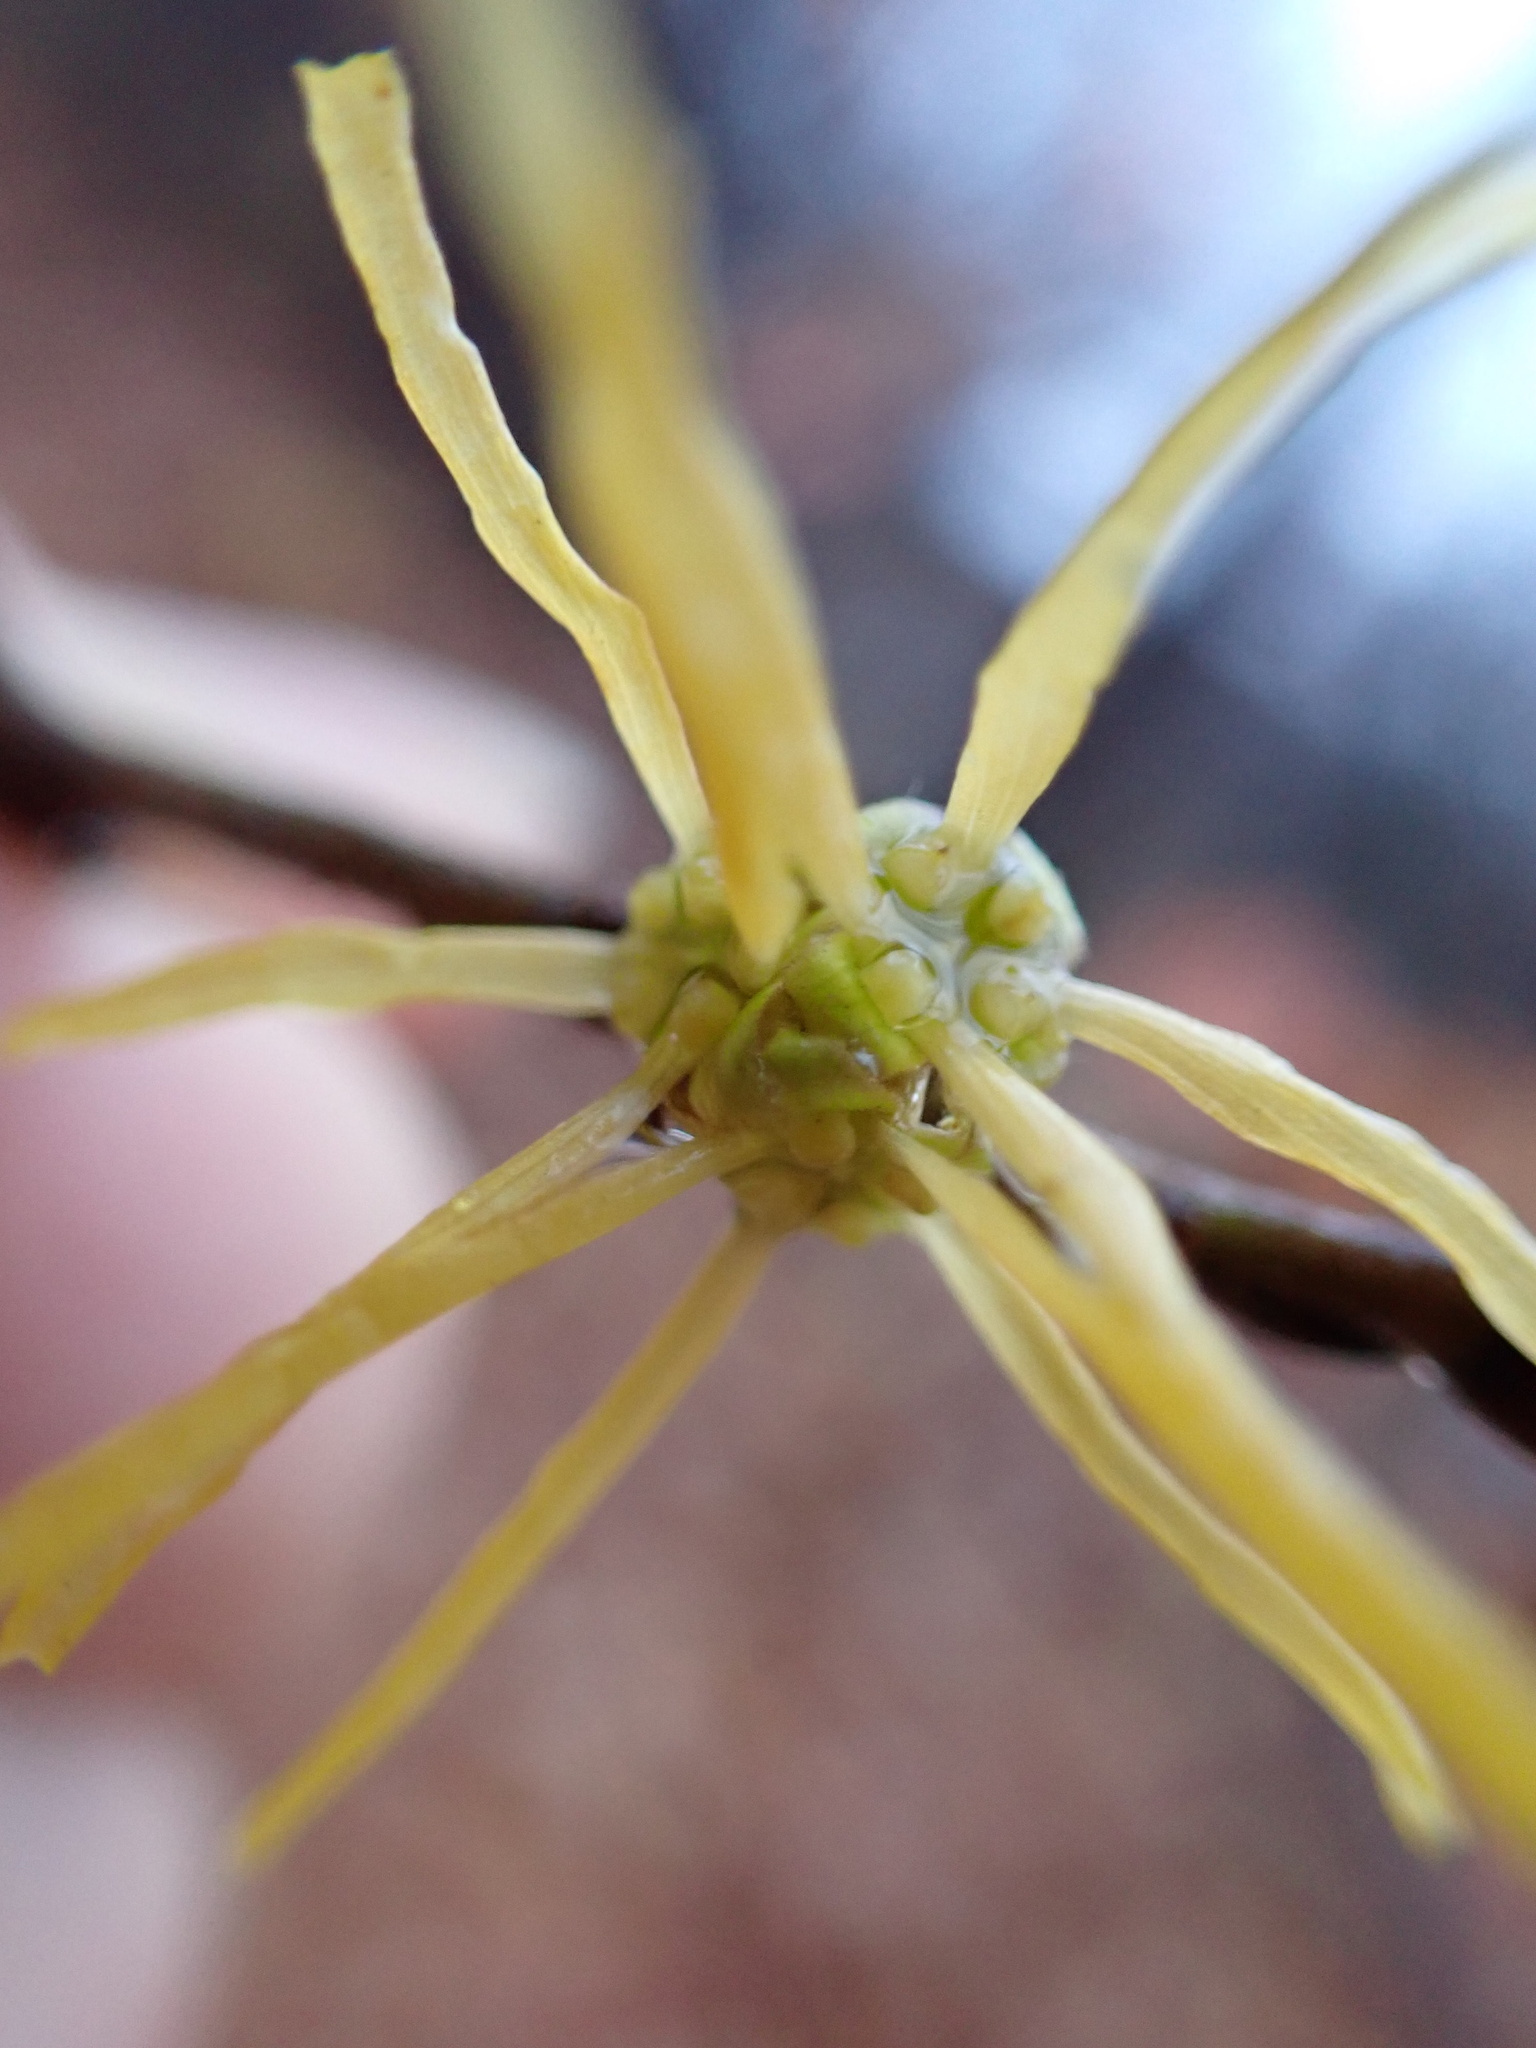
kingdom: Plantae
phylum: Tracheophyta
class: Magnoliopsida
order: Saxifragales
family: Hamamelidaceae
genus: Hamamelis
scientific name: Hamamelis virginiana
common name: Witch-hazel
